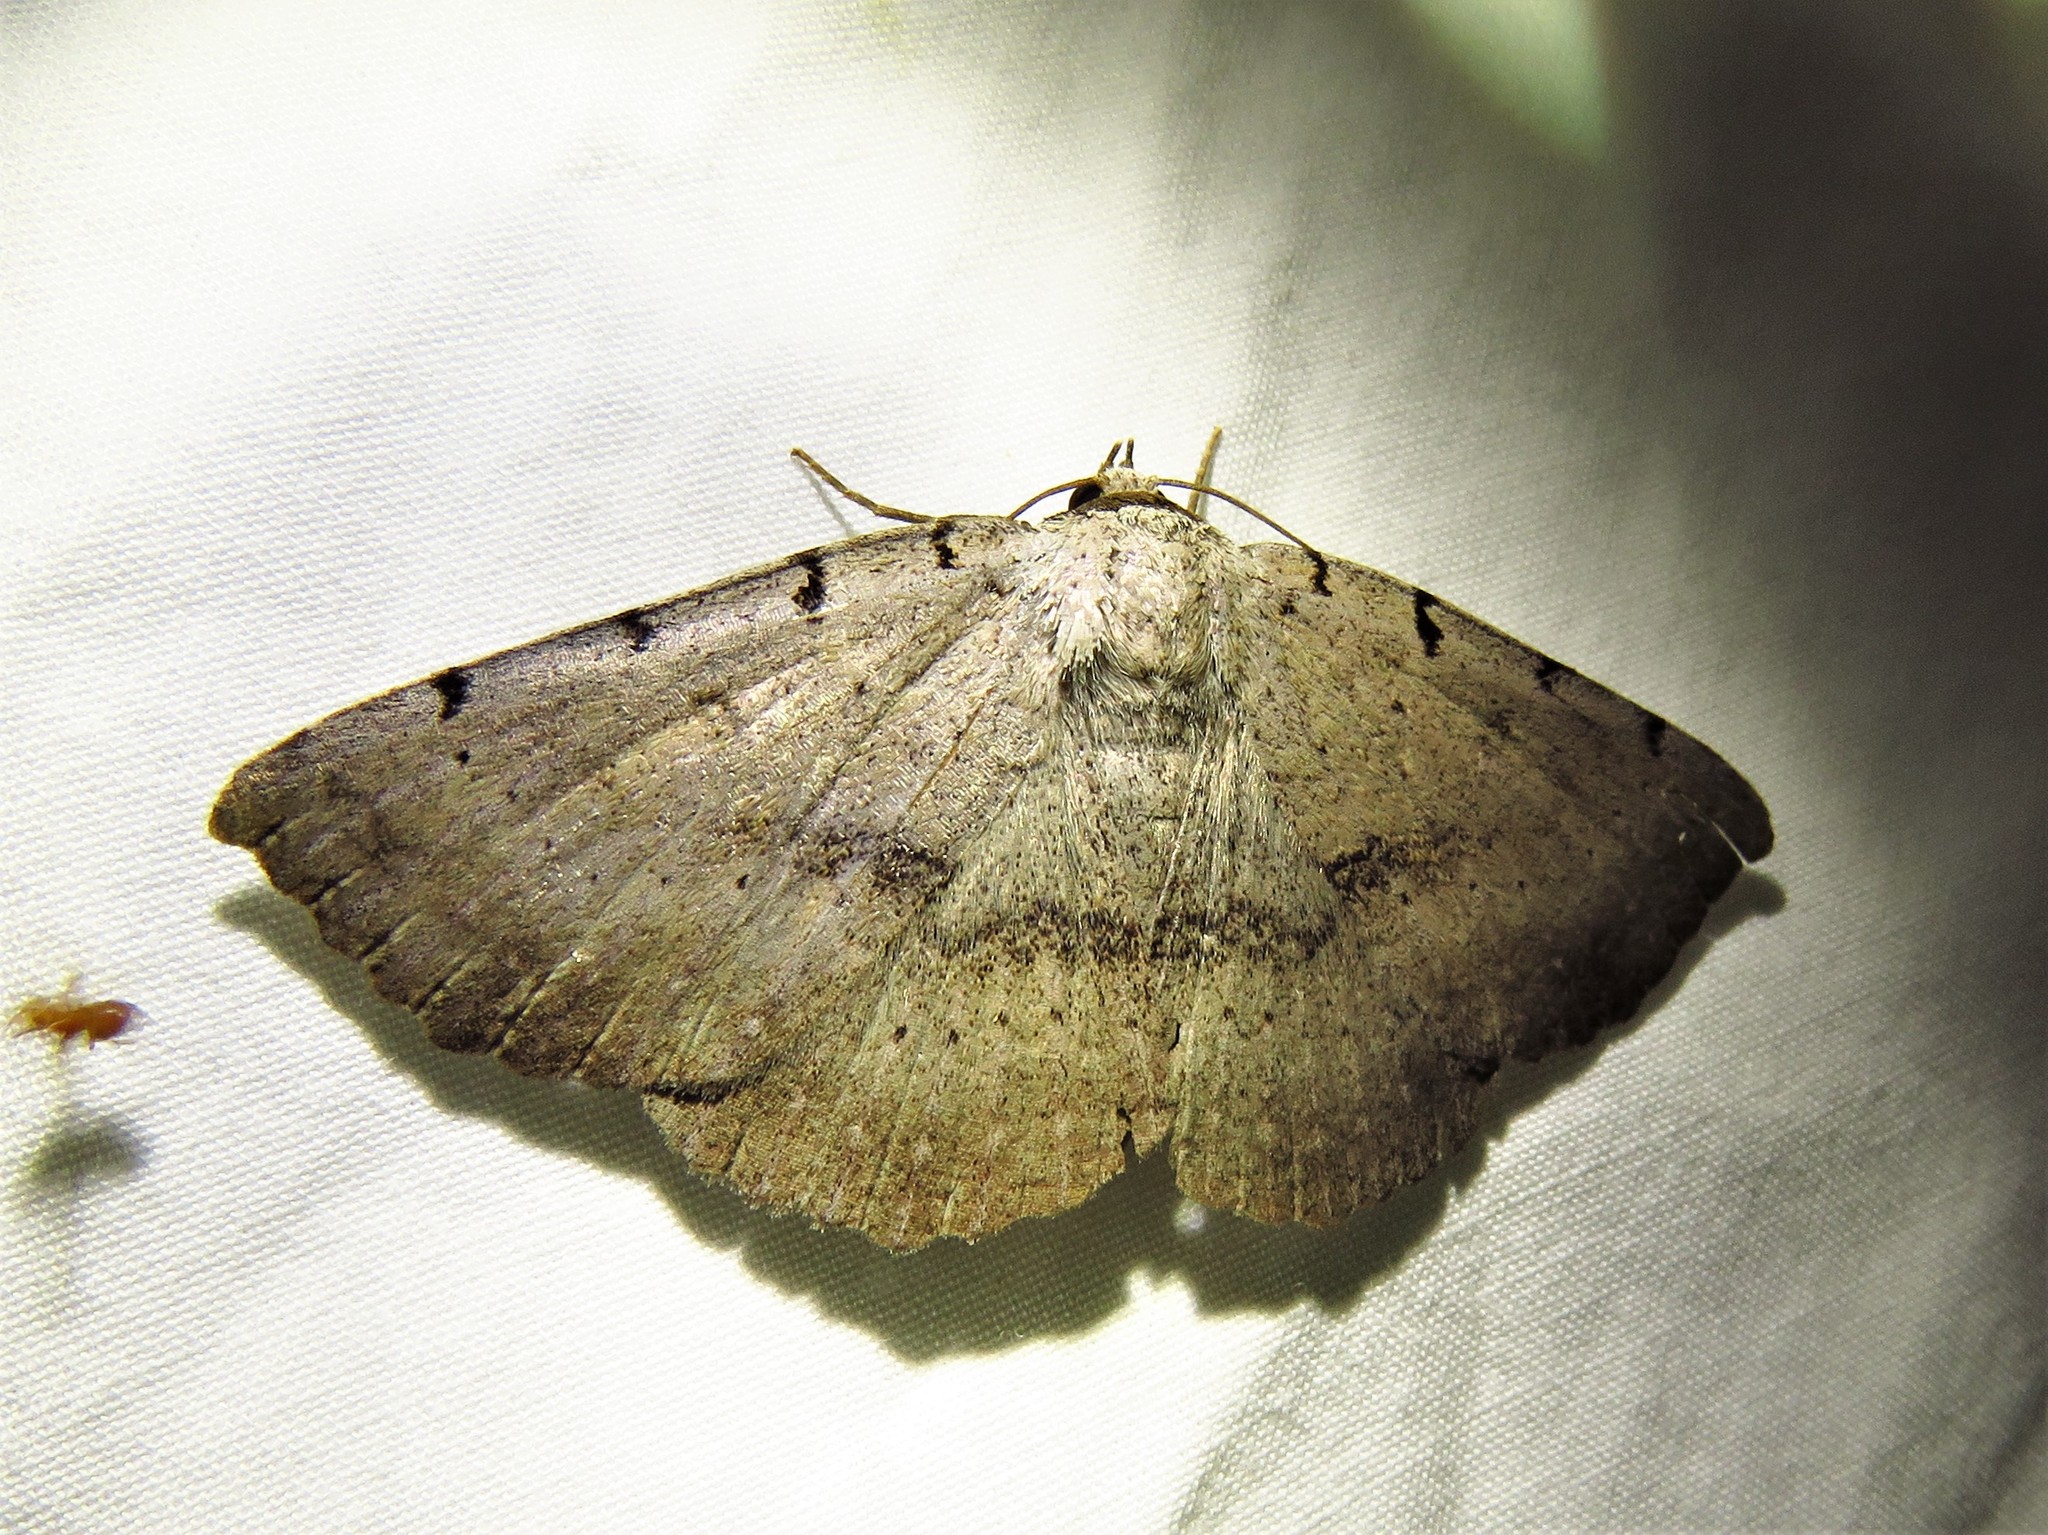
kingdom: Animalia
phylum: Arthropoda
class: Insecta
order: Lepidoptera
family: Erebidae
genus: Spiloloma
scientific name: Spiloloma lunilinea
